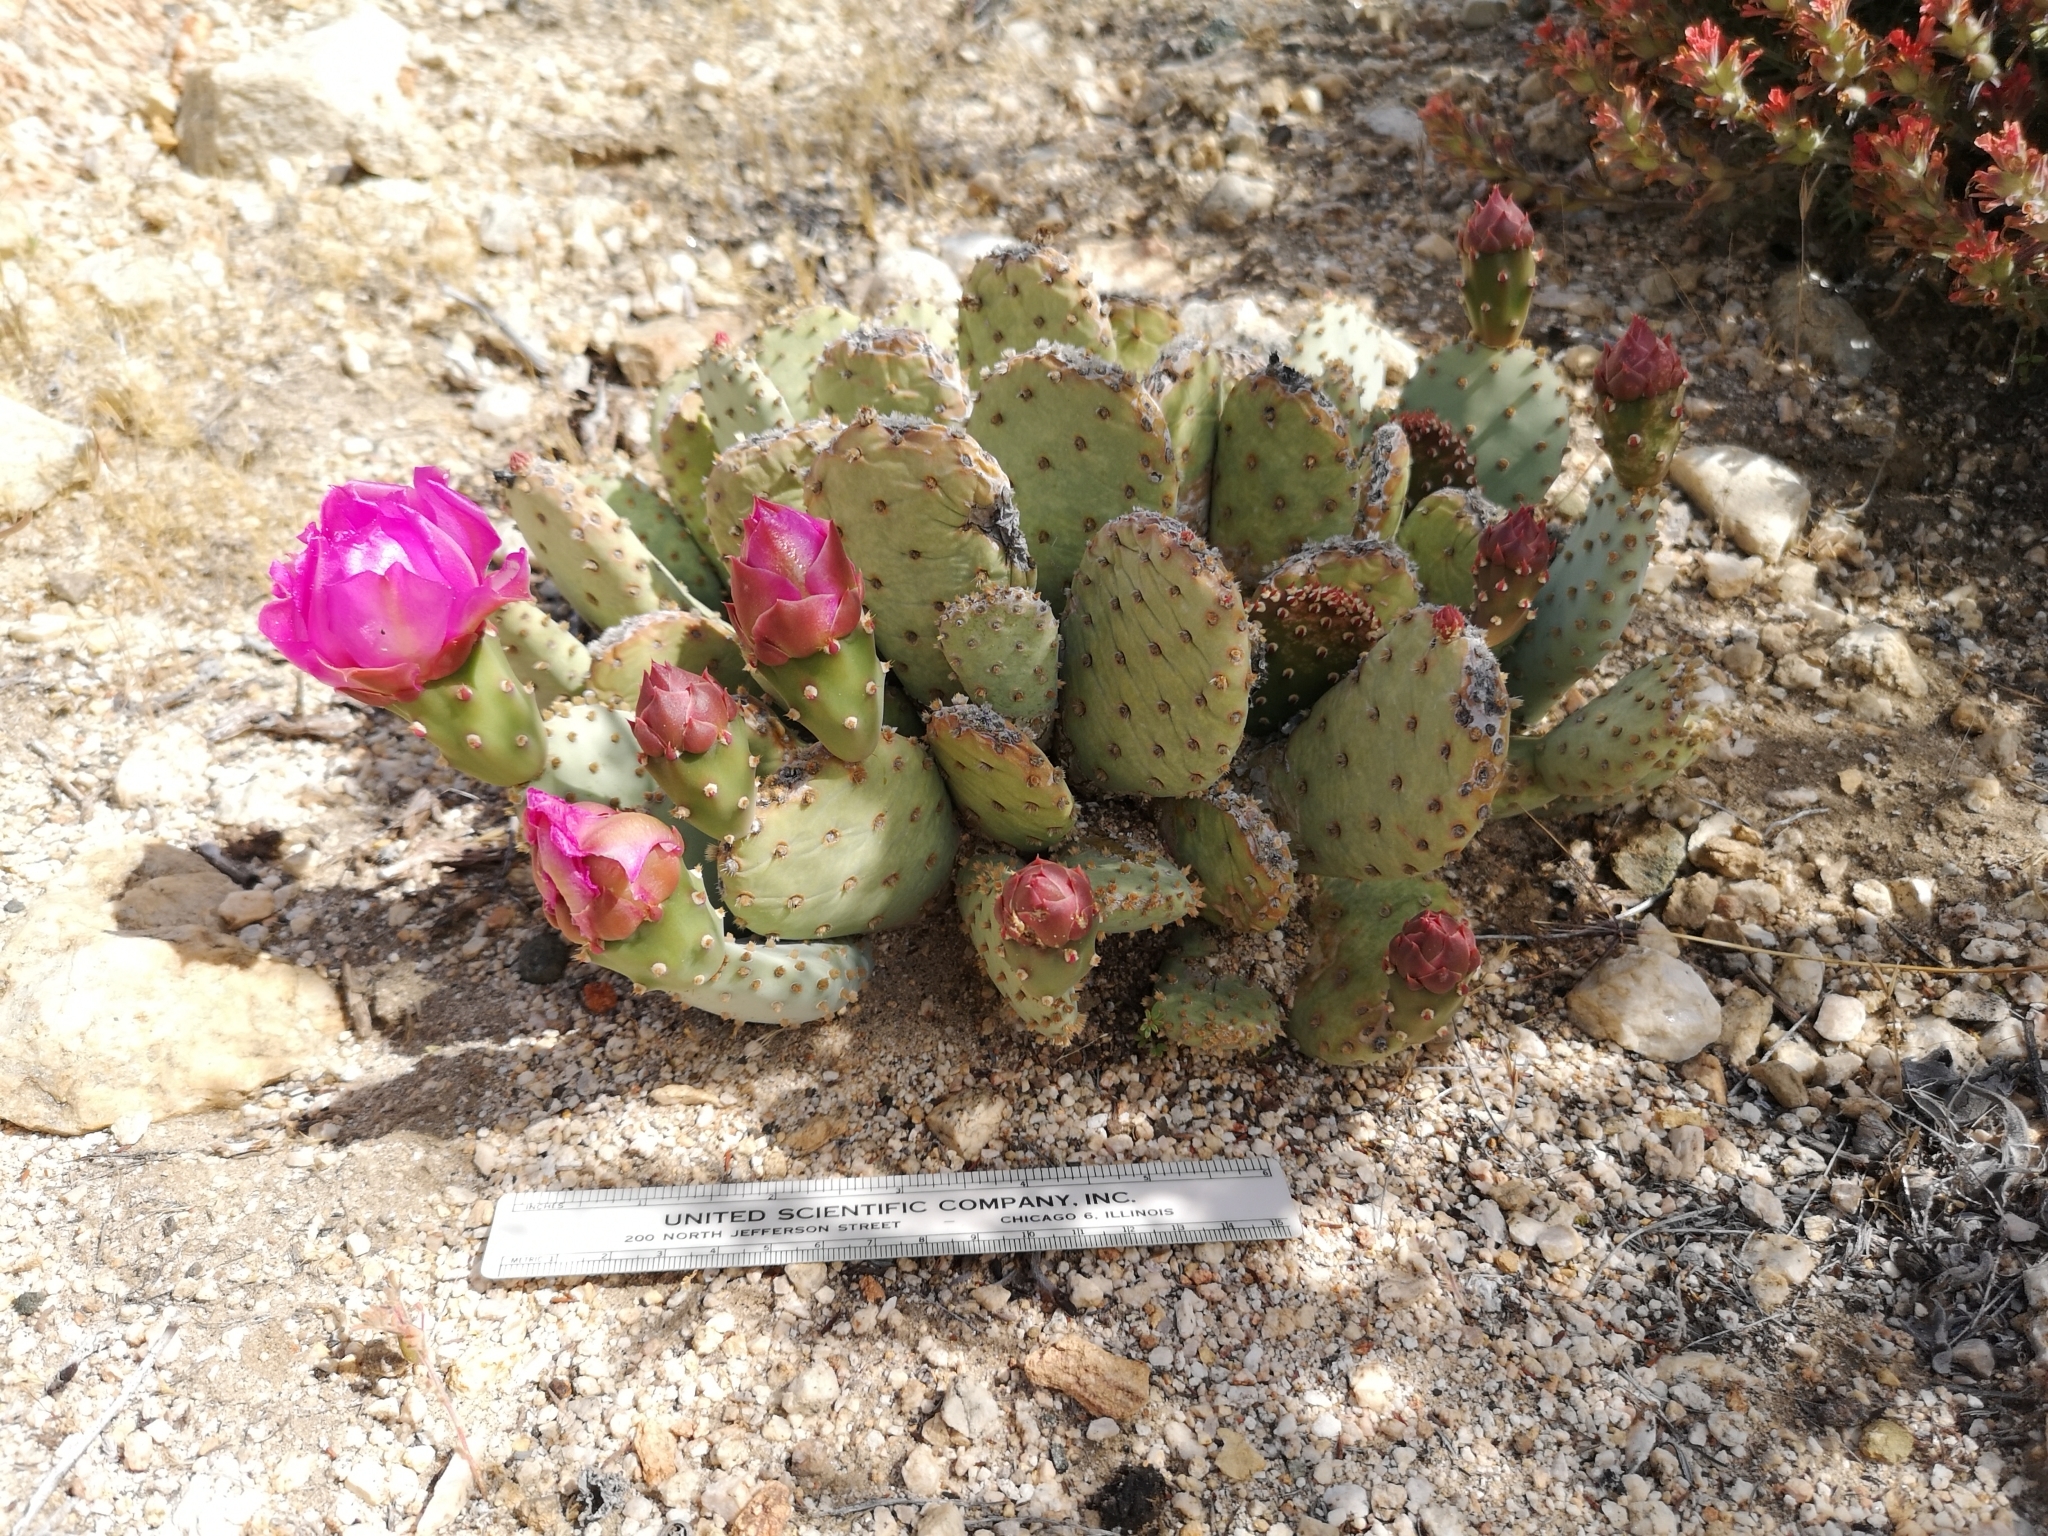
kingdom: Plantae
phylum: Tracheophyta
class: Magnoliopsida
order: Caryophyllales
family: Cactaceae
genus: Opuntia
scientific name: Opuntia basilaris
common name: Beavertail prickly-pear
